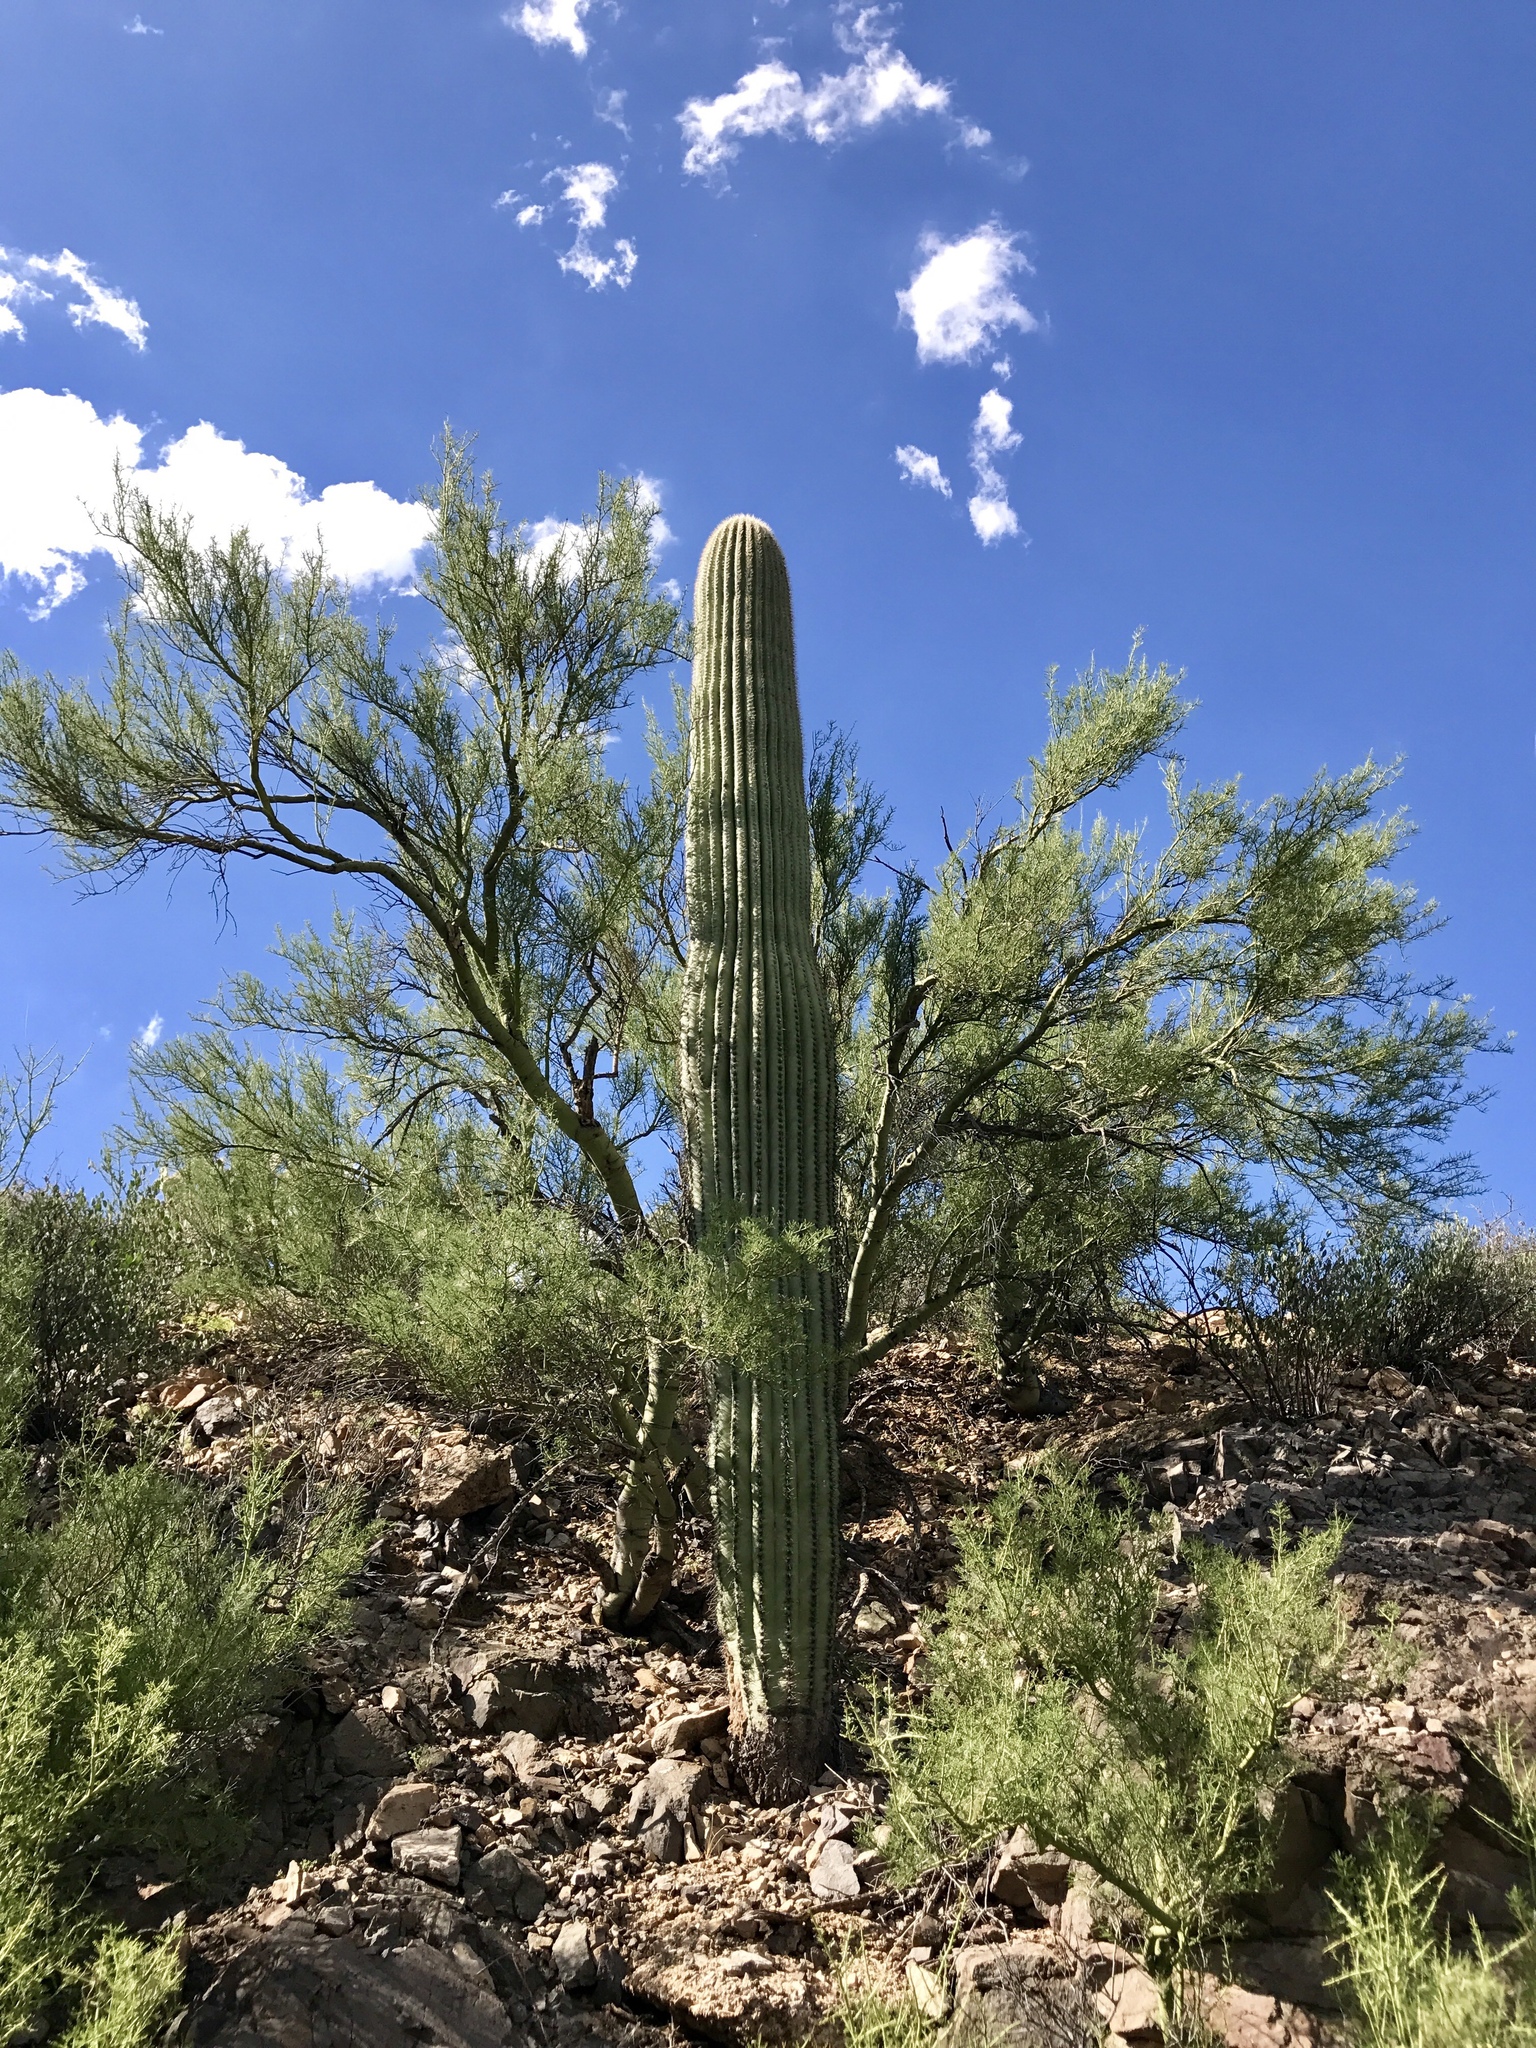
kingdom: Plantae
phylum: Tracheophyta
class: Magnoliopsida
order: Caryophyllales
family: Cactaceae
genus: Carnegiea
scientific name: Carnegiea gigantea
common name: Saguaro
